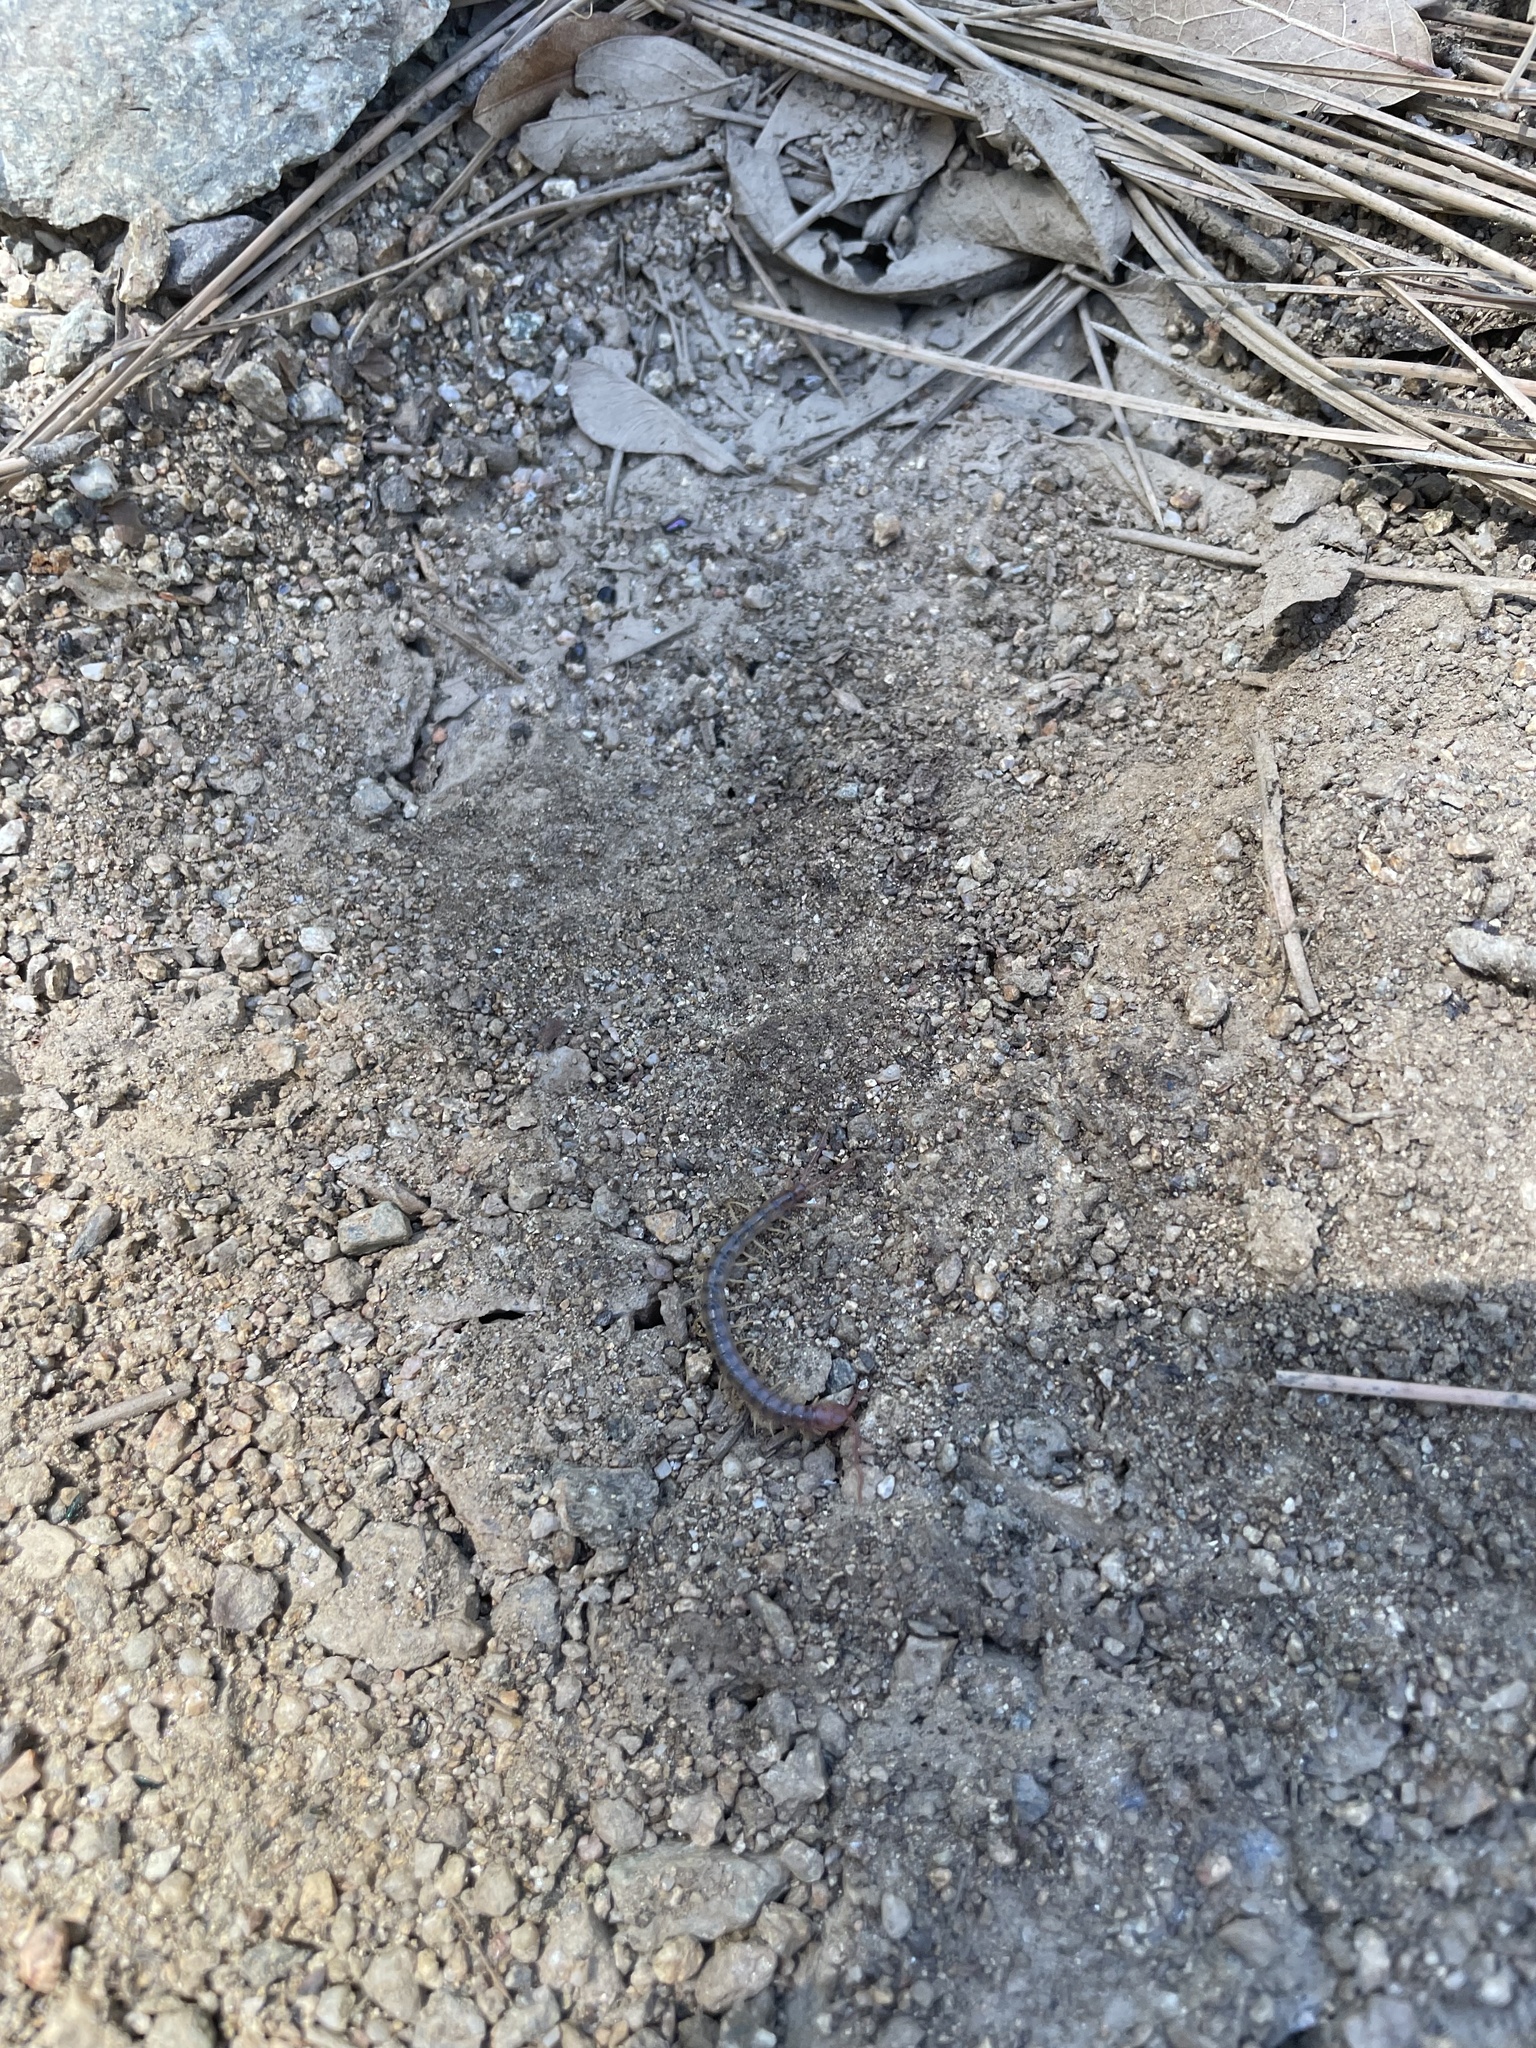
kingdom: Animalia
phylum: Arthropoda
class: Chilopoda
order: Scolopendromorpha
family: Scolopendridae
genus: Scolopendra
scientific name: Scolopendra polymorpha
